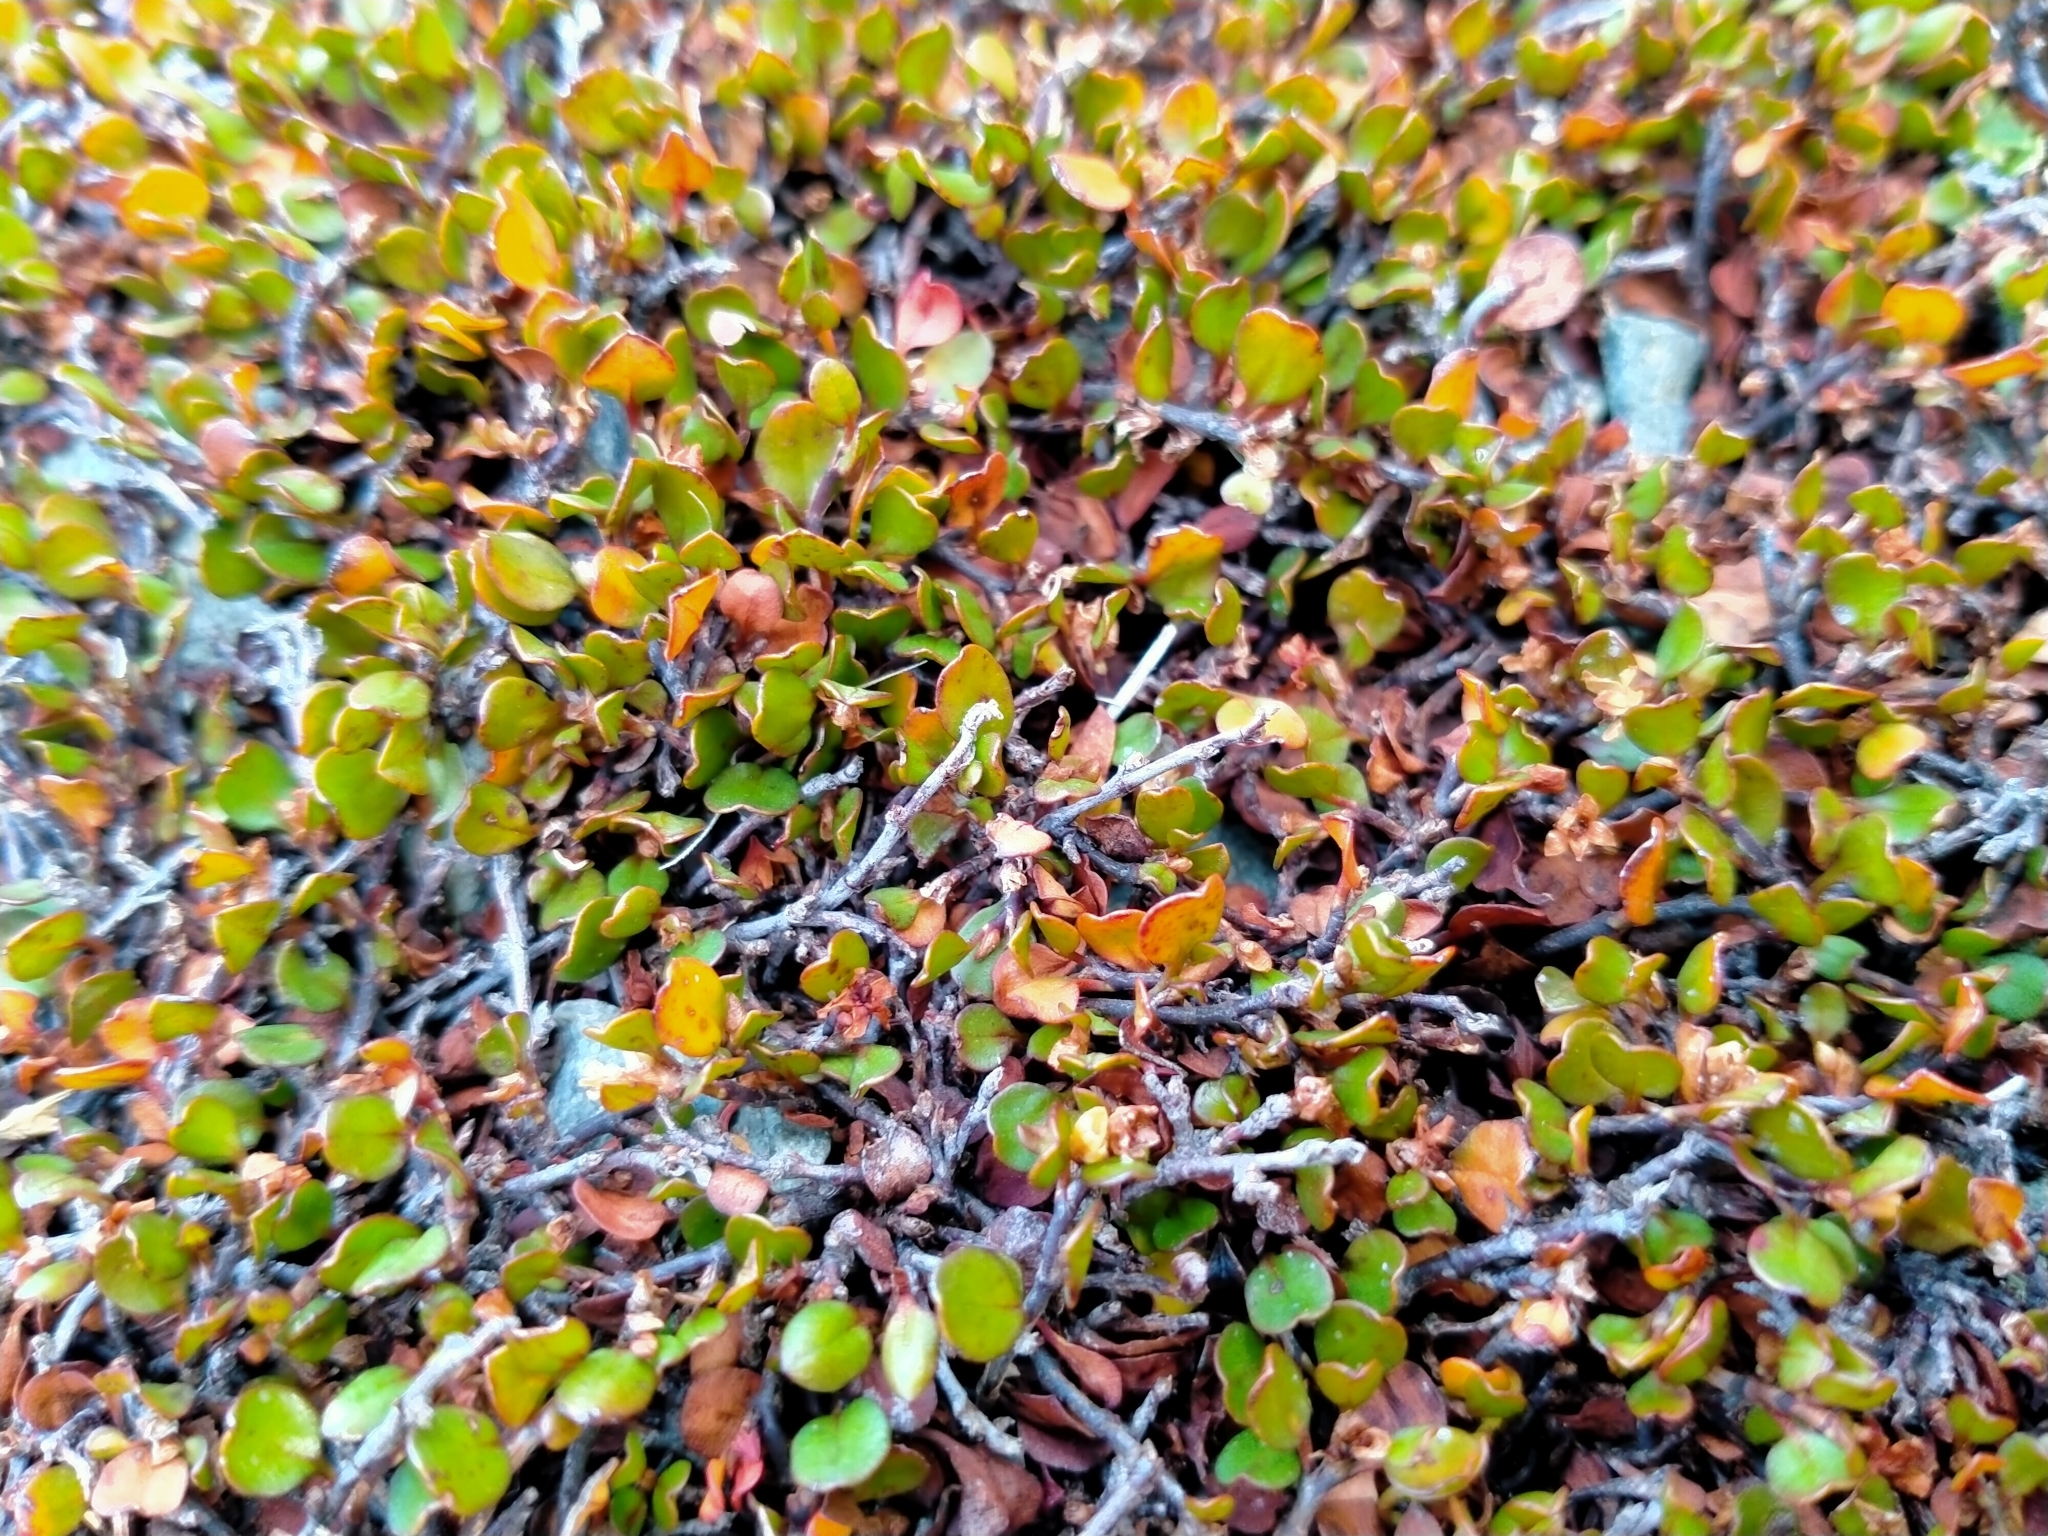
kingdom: Plantae
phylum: Tracheophyta
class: Magnoliopsida
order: Caryophyllales
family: Polygonaceae
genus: Muehlenbeckia
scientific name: Muehlenbeckia axillaris
